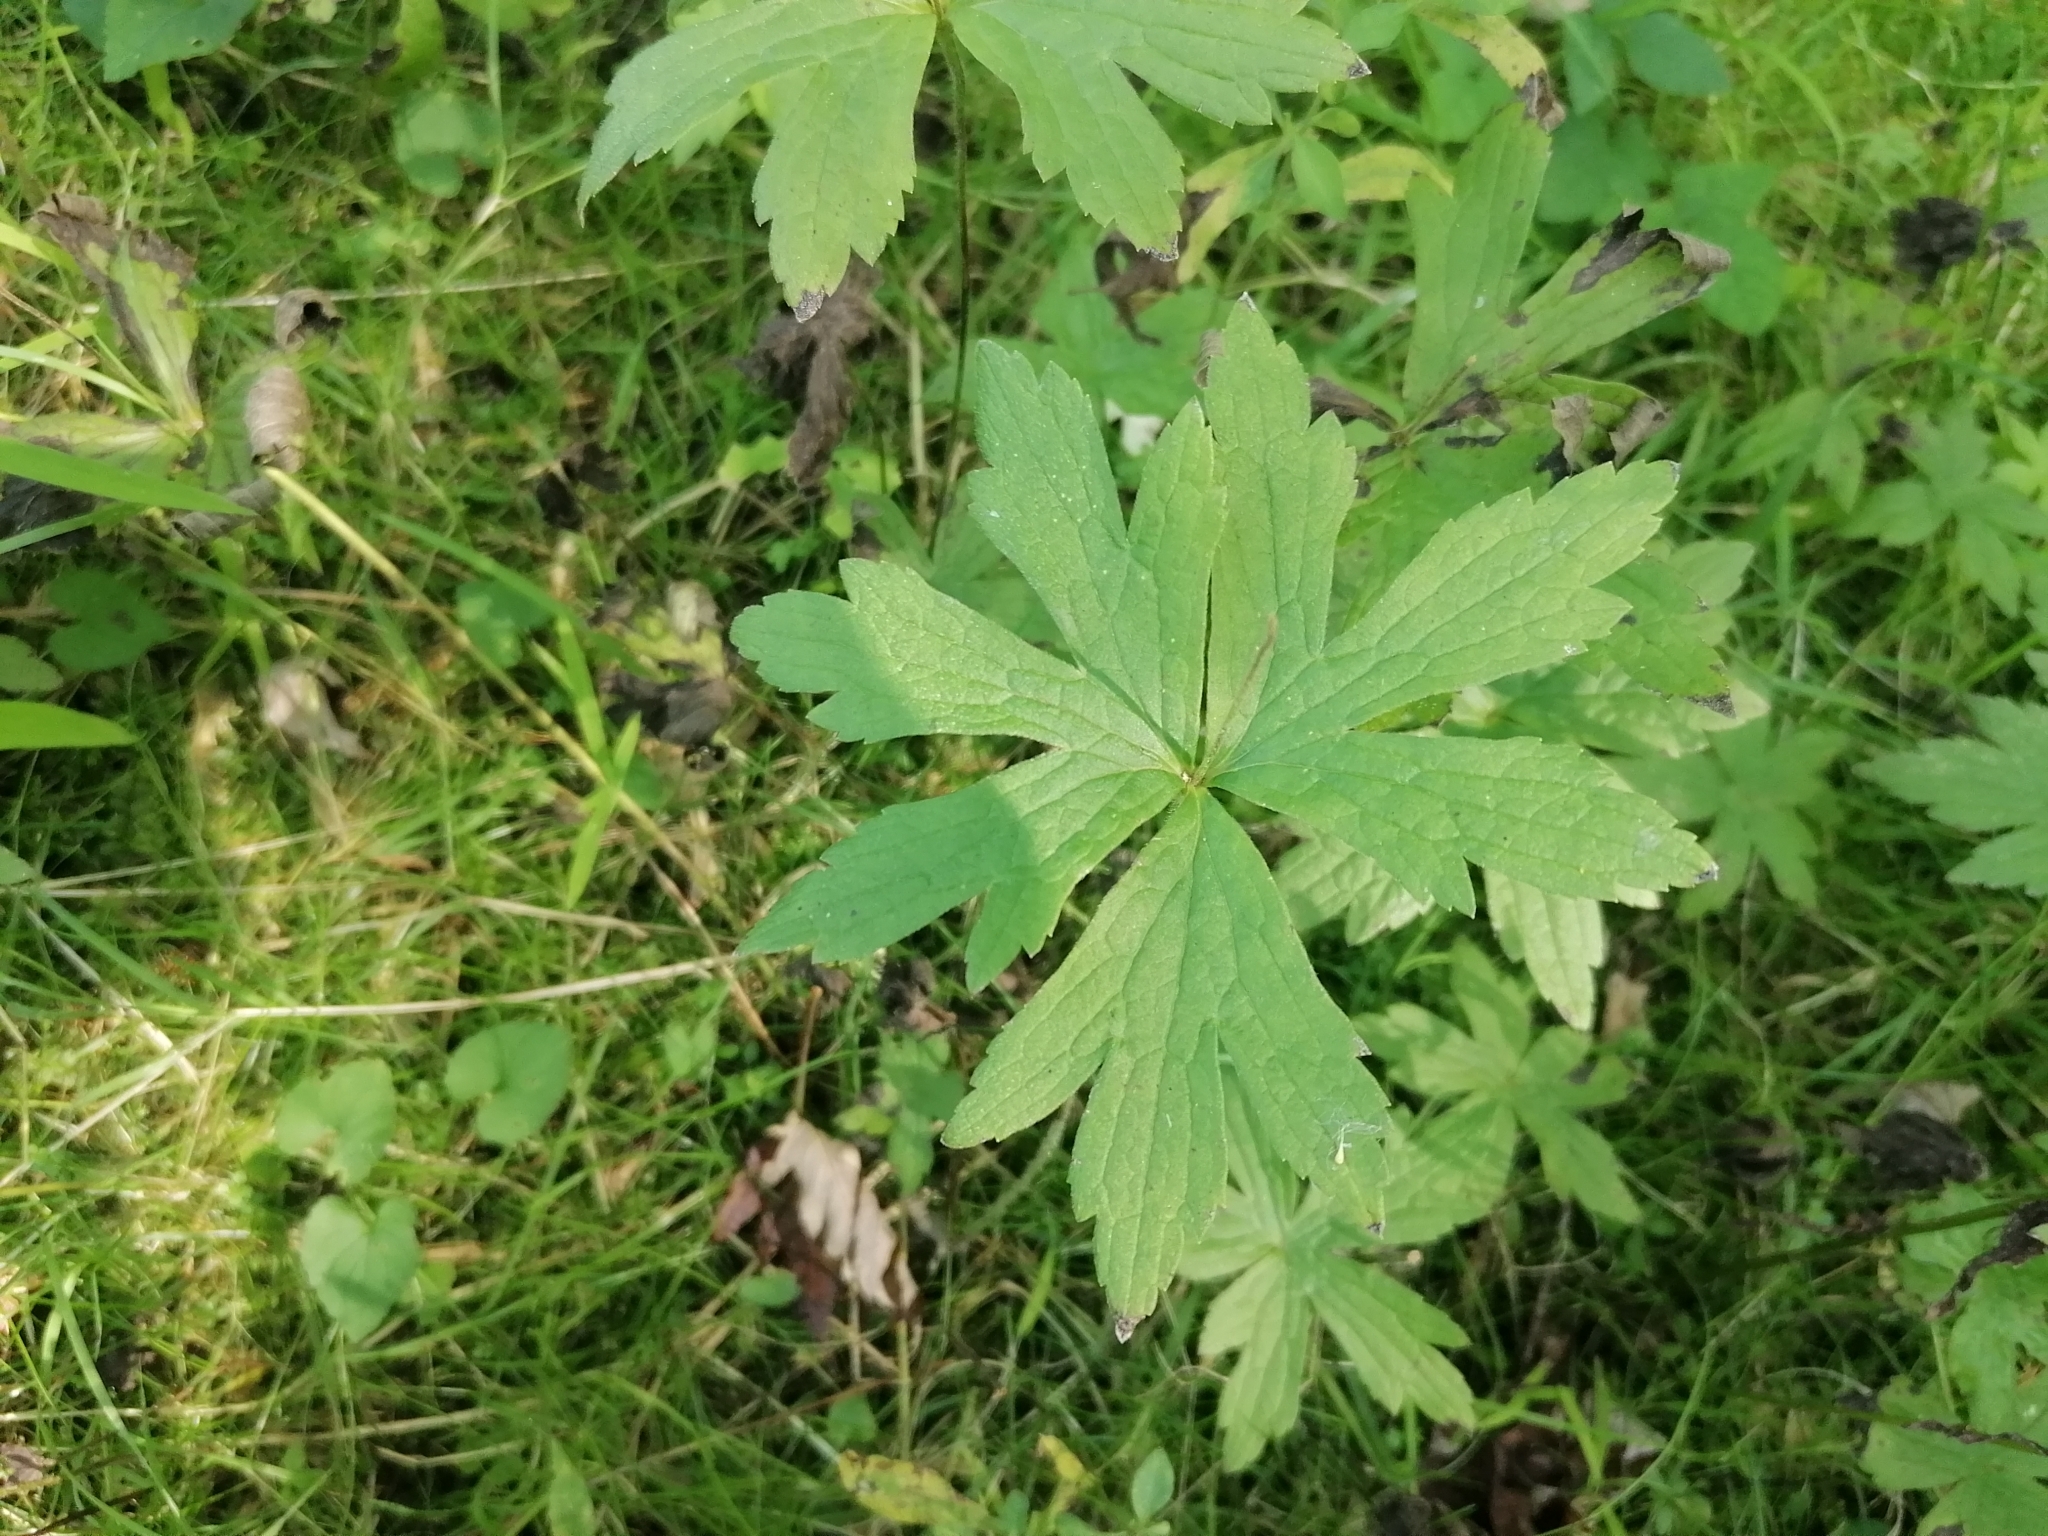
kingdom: Plantae
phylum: Tracheophyta
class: Magnoliopsida
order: Ranunculales
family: Ranunculaceae
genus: Anemonastrum
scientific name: Anemonastrum canadense
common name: Canada anemone
